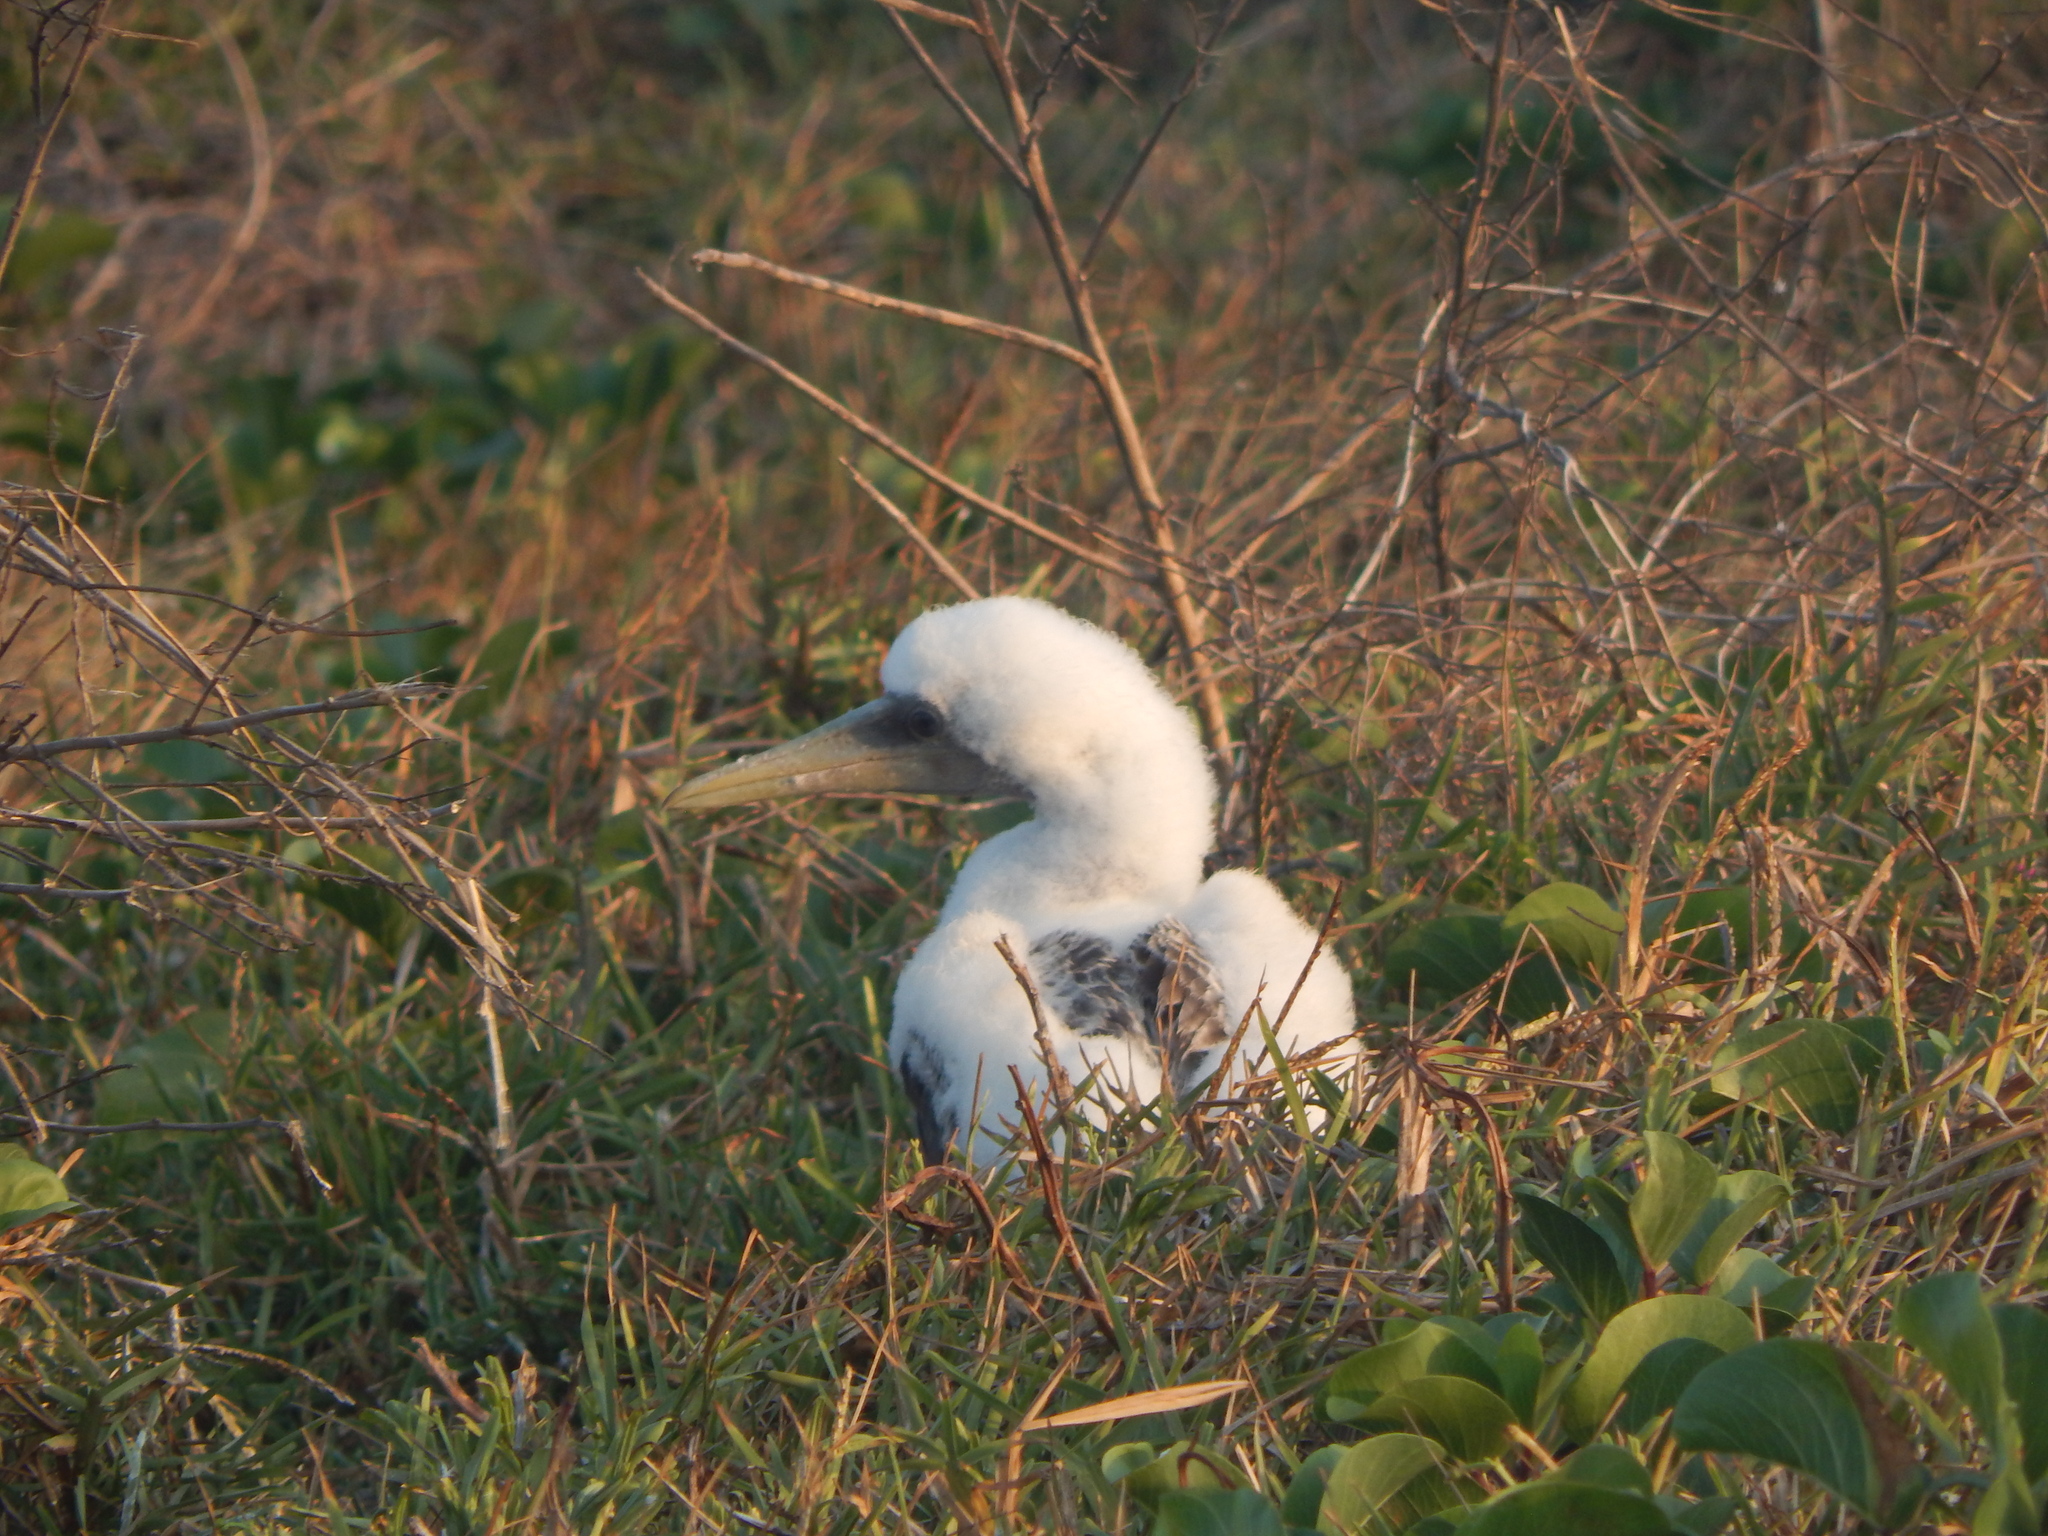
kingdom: Animalia
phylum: Chordata
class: Aves
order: Suliformes
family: Sulidae
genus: Sula
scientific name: Sula dactylatra
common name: Masked booby
